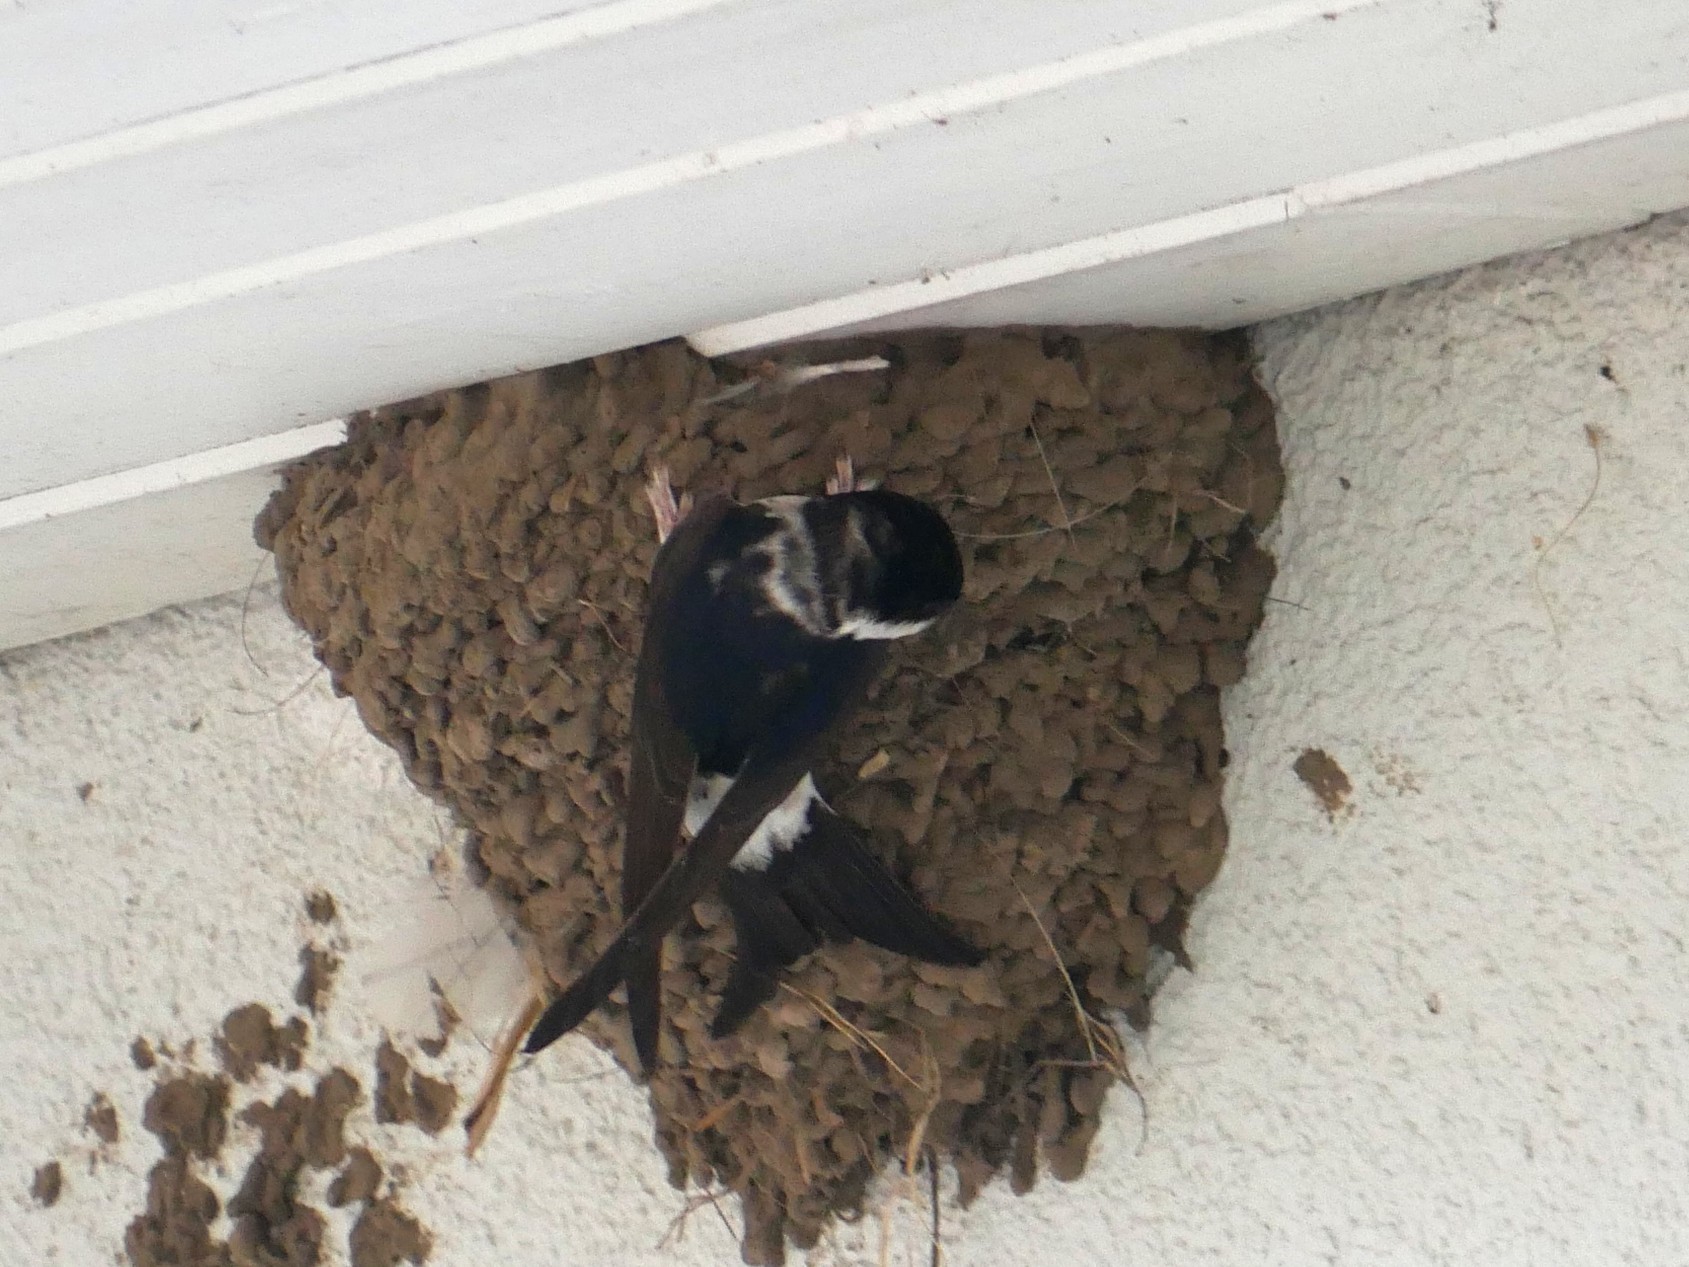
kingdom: Animalia
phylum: Chordata
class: Aves
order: Passeriformes
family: Hirundinidae
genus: Delichon
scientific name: Delichon urbicum
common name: Common house martin
